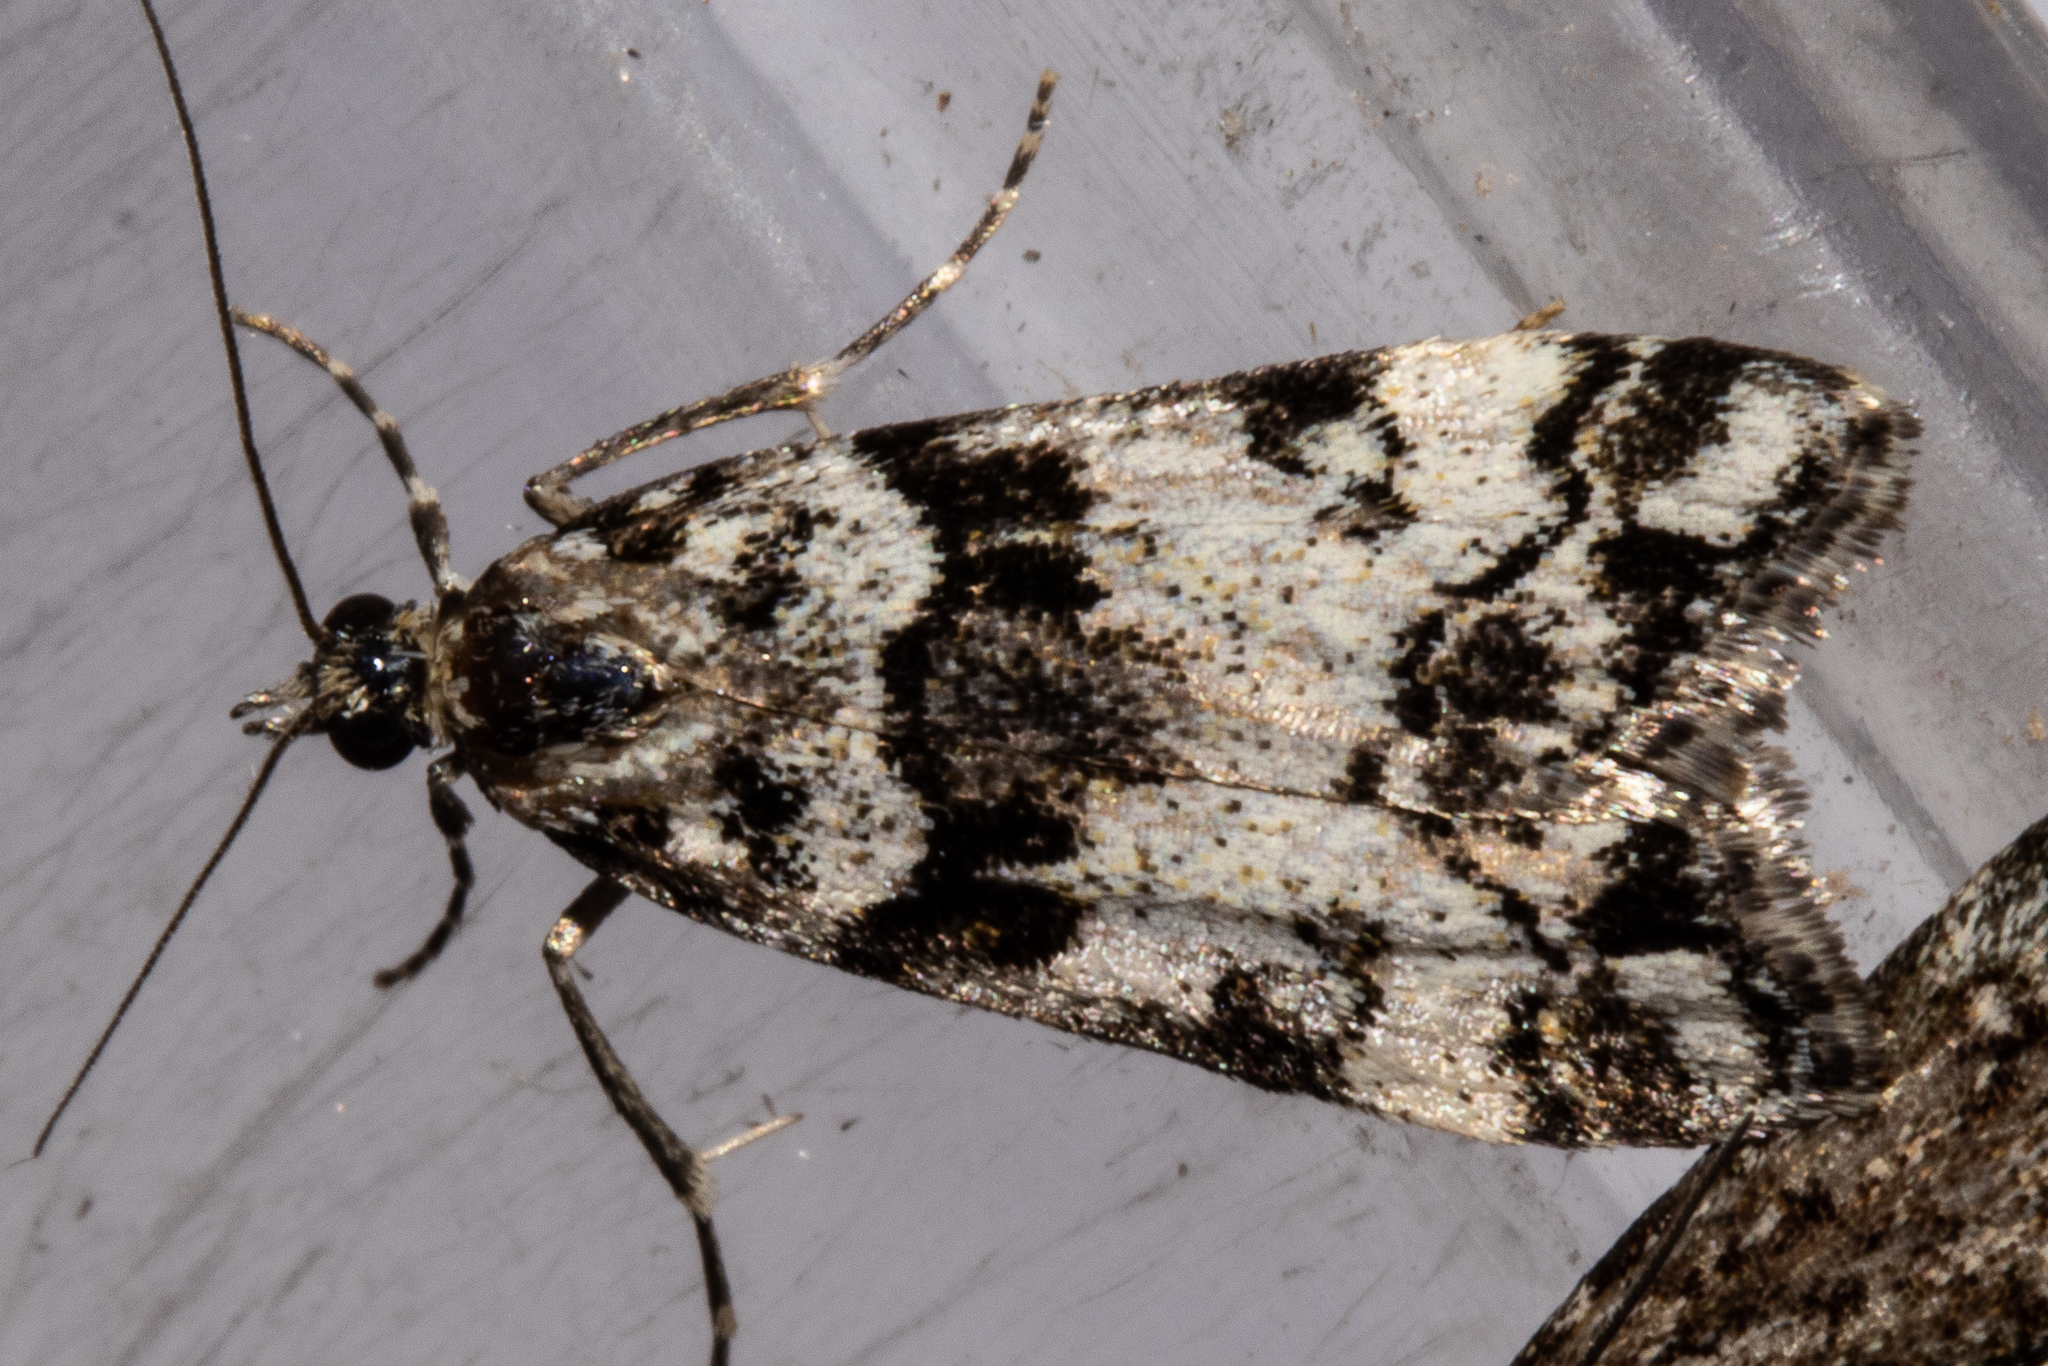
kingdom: Animalia
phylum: Arthropoda
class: Insecta
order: Lepidoptera
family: Crambidae
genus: Eudonia
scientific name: Eudonia torodes
